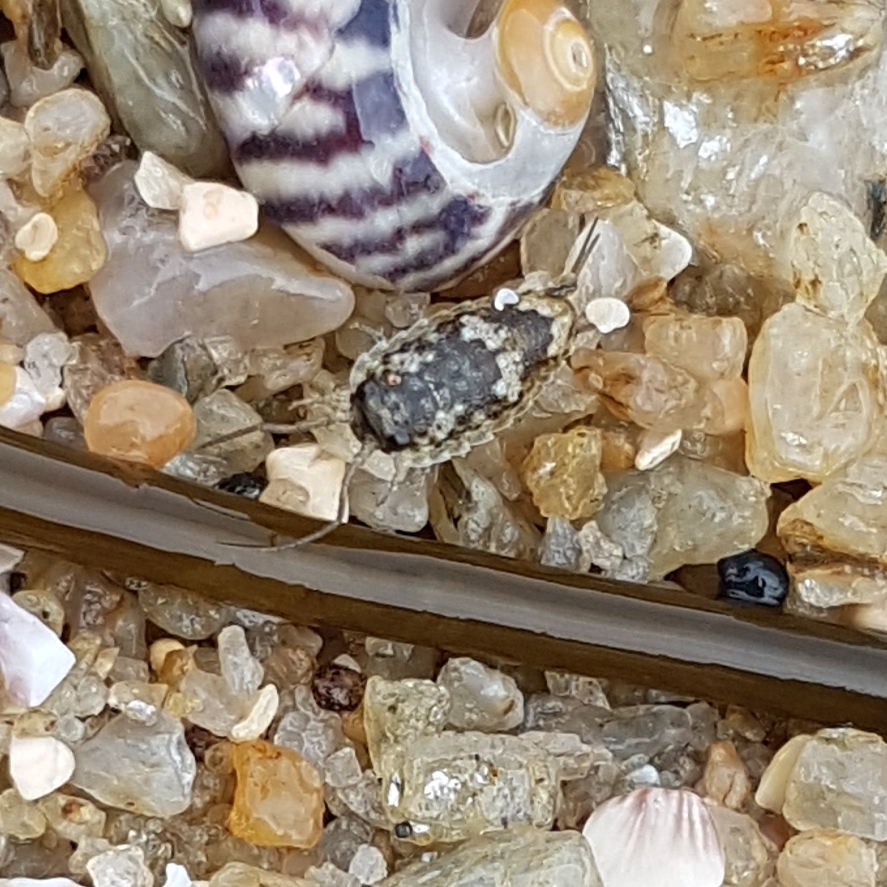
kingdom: Animalia
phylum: Arthropoda
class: Malacostraca
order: Isopoda
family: Ligiidae
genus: Ligia
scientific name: Ligia oceanica
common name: Sea slater
